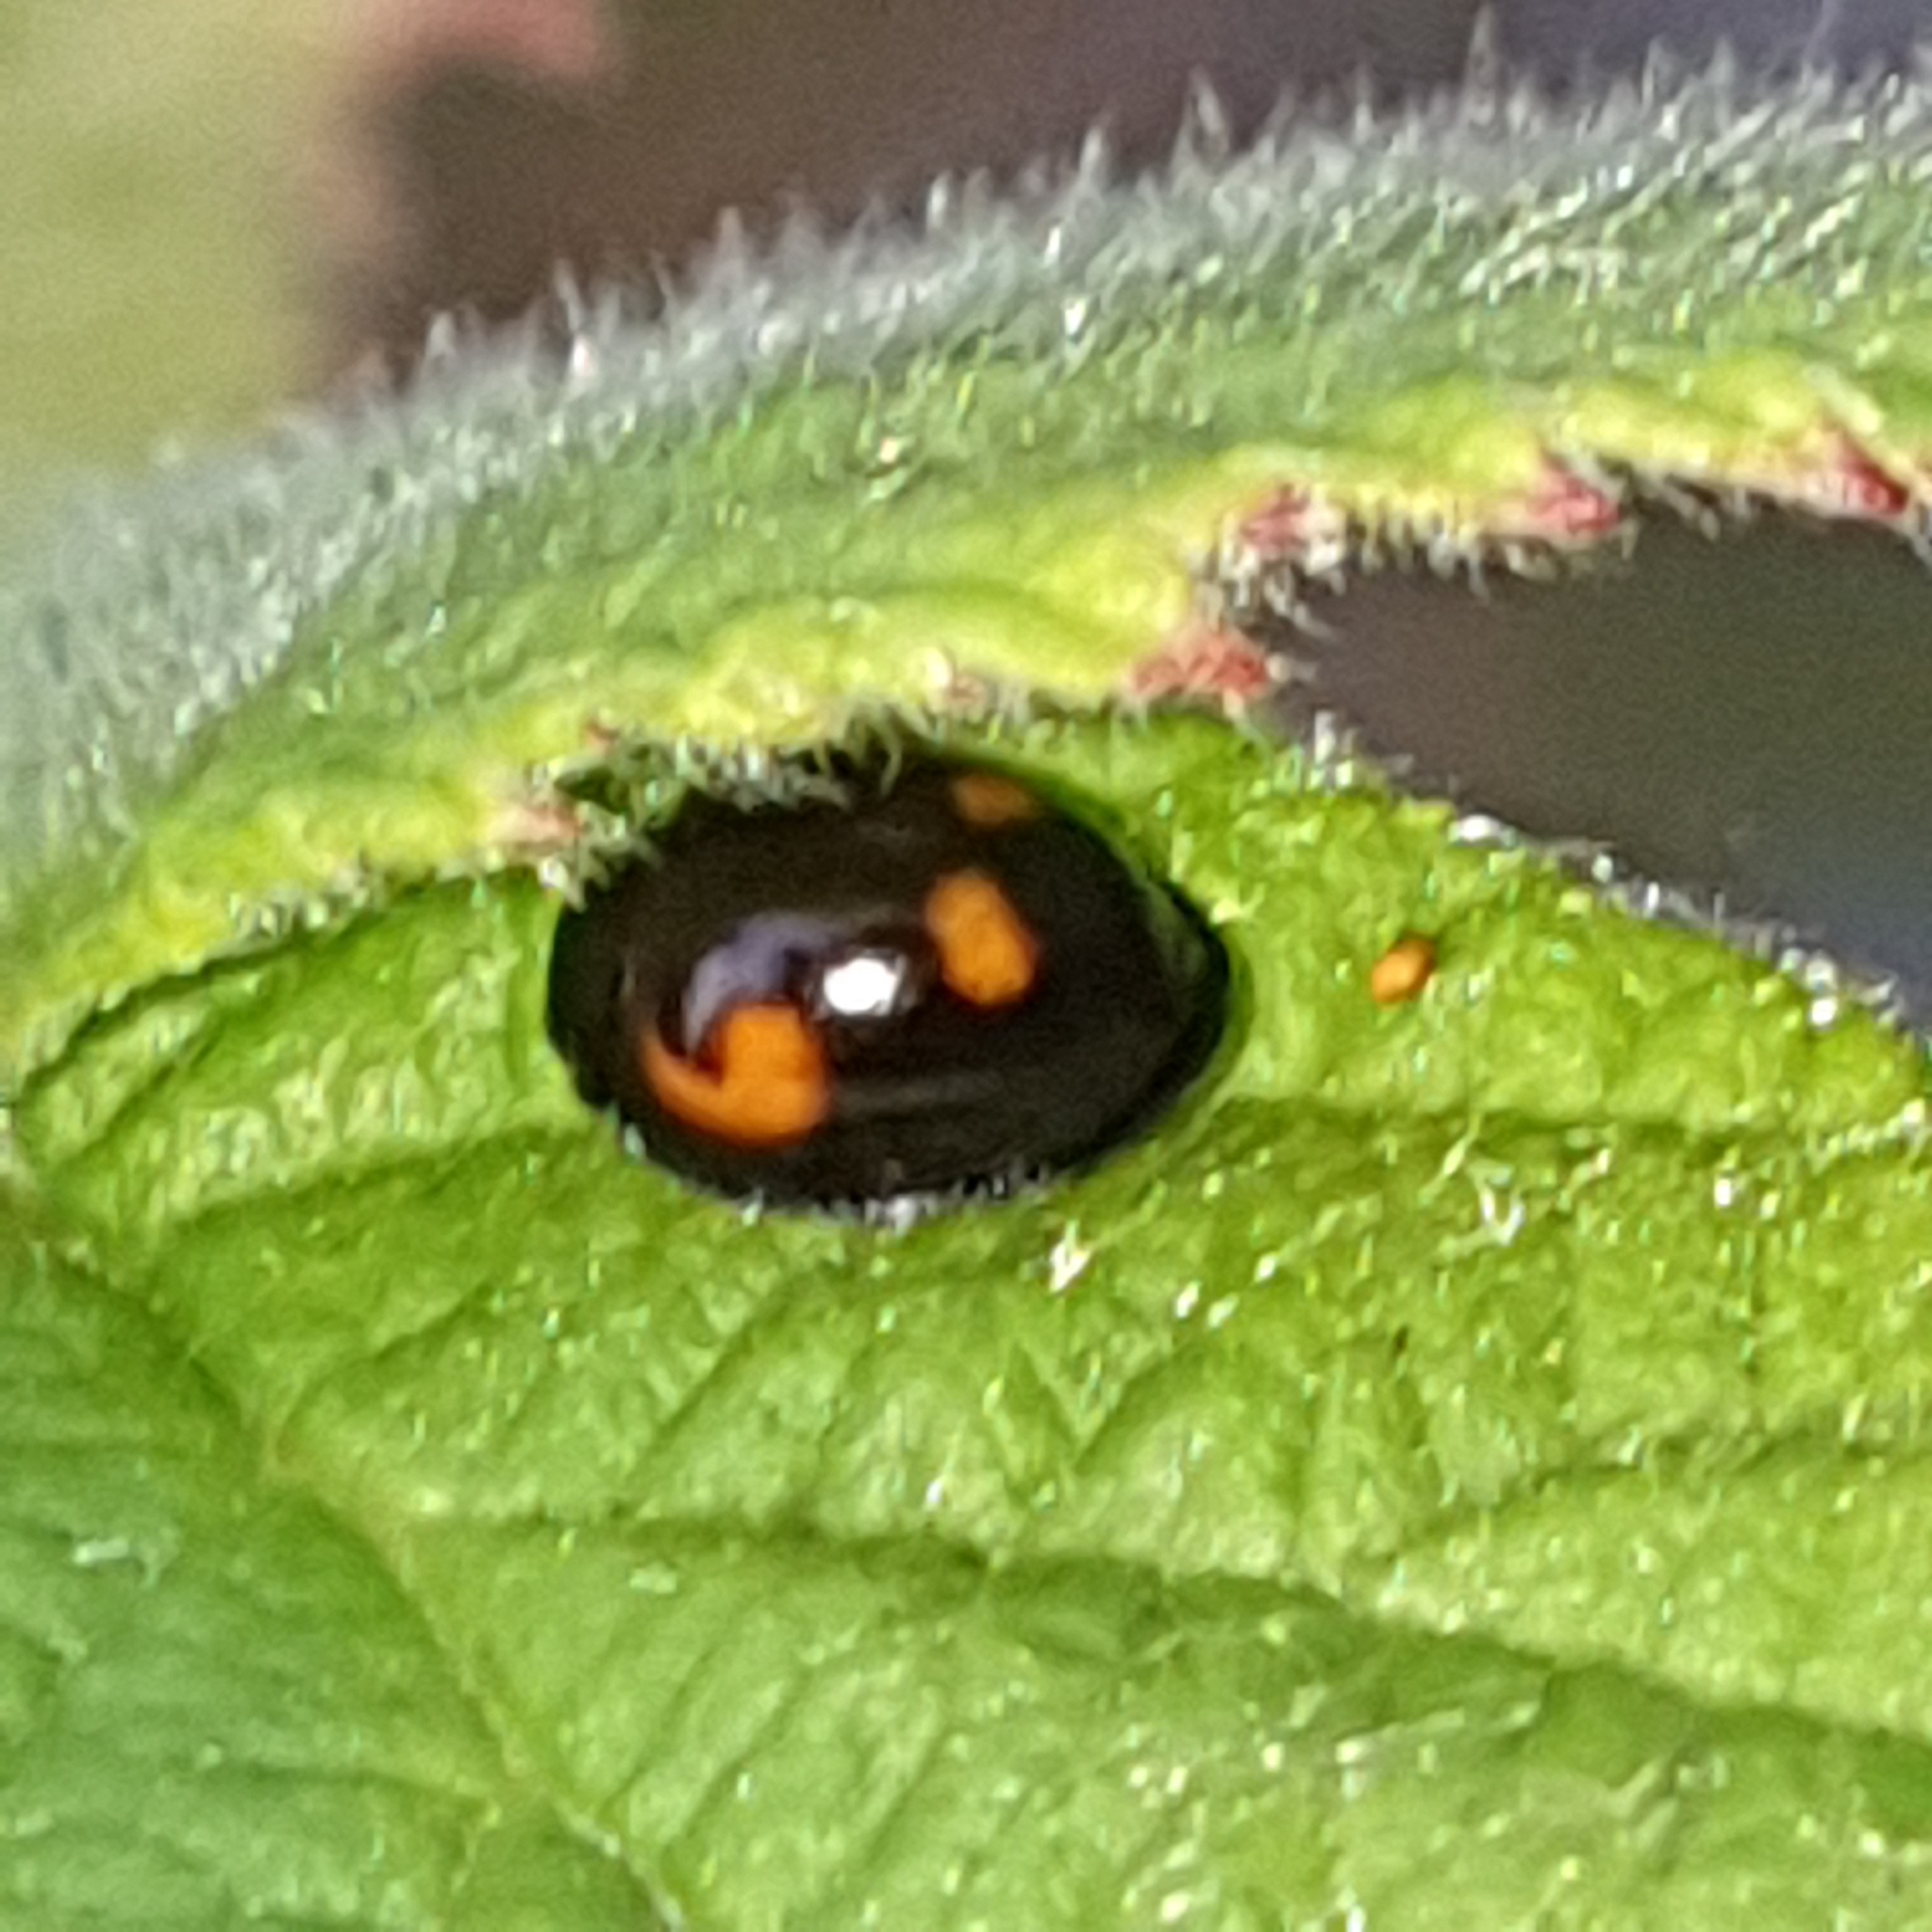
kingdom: Animalia
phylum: Arthropoda
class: Insecta
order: Coleoptera
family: Coccinellidae
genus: Brumus
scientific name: Brumus quadripustulatus
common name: Ladybird beetle
